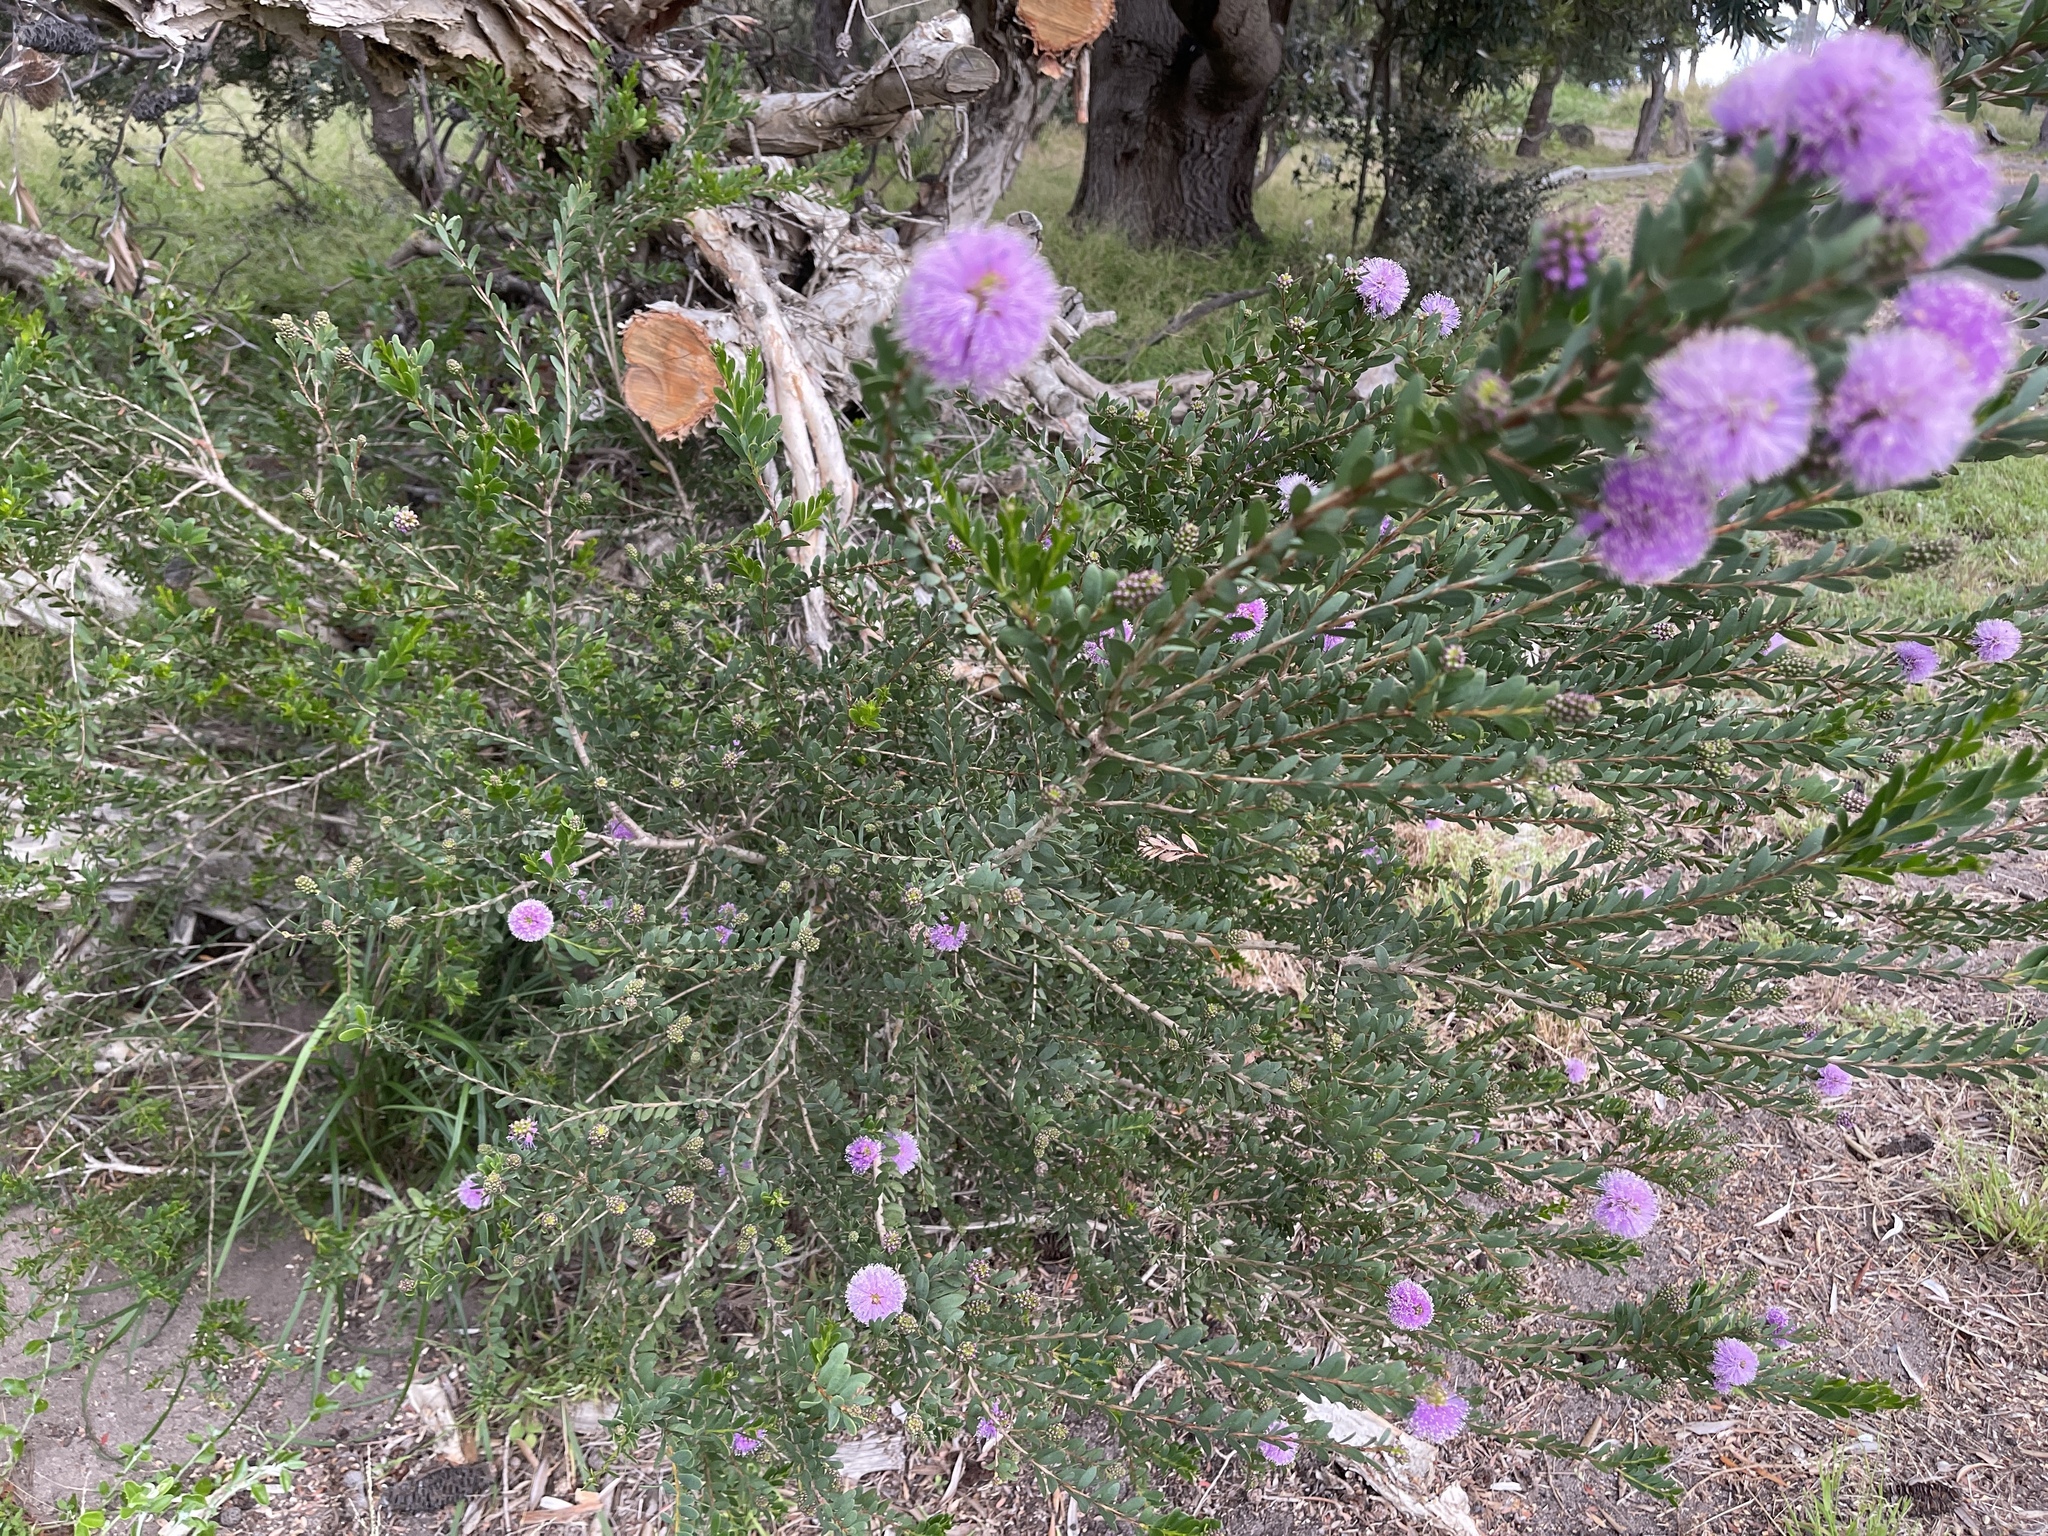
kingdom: Plantae
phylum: Tracheophyta
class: Magnoliopsida
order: Myrtales
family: Myrtaceae
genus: Melaleuca
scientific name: Melaleuca nesophila
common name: Mauve honey myrtle
